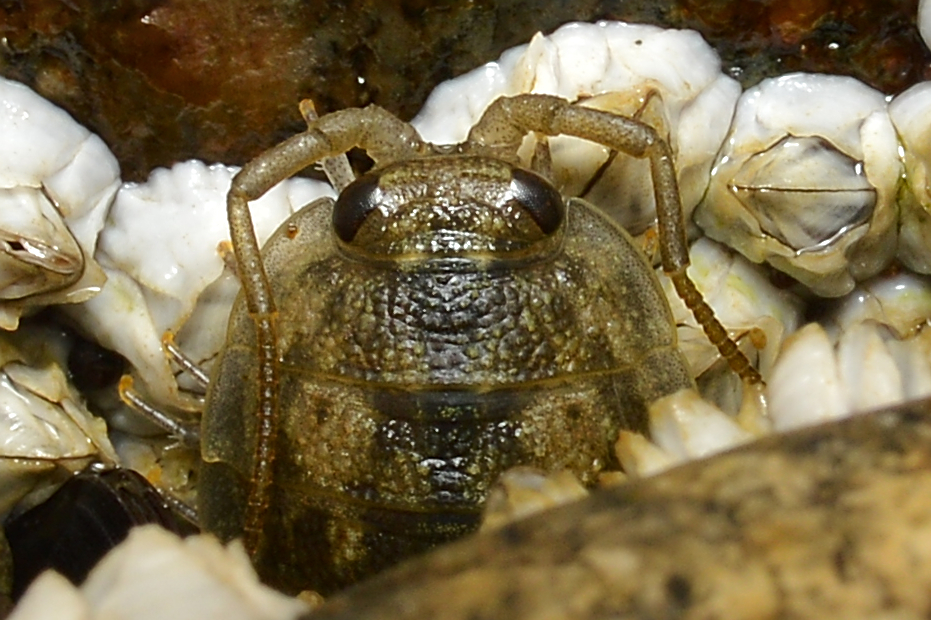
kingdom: Animalia
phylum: Arthropoda
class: Malacostraca
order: Isopoda
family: Ligiidae
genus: Ligia
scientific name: Ligia oceanica
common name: Sea slater
